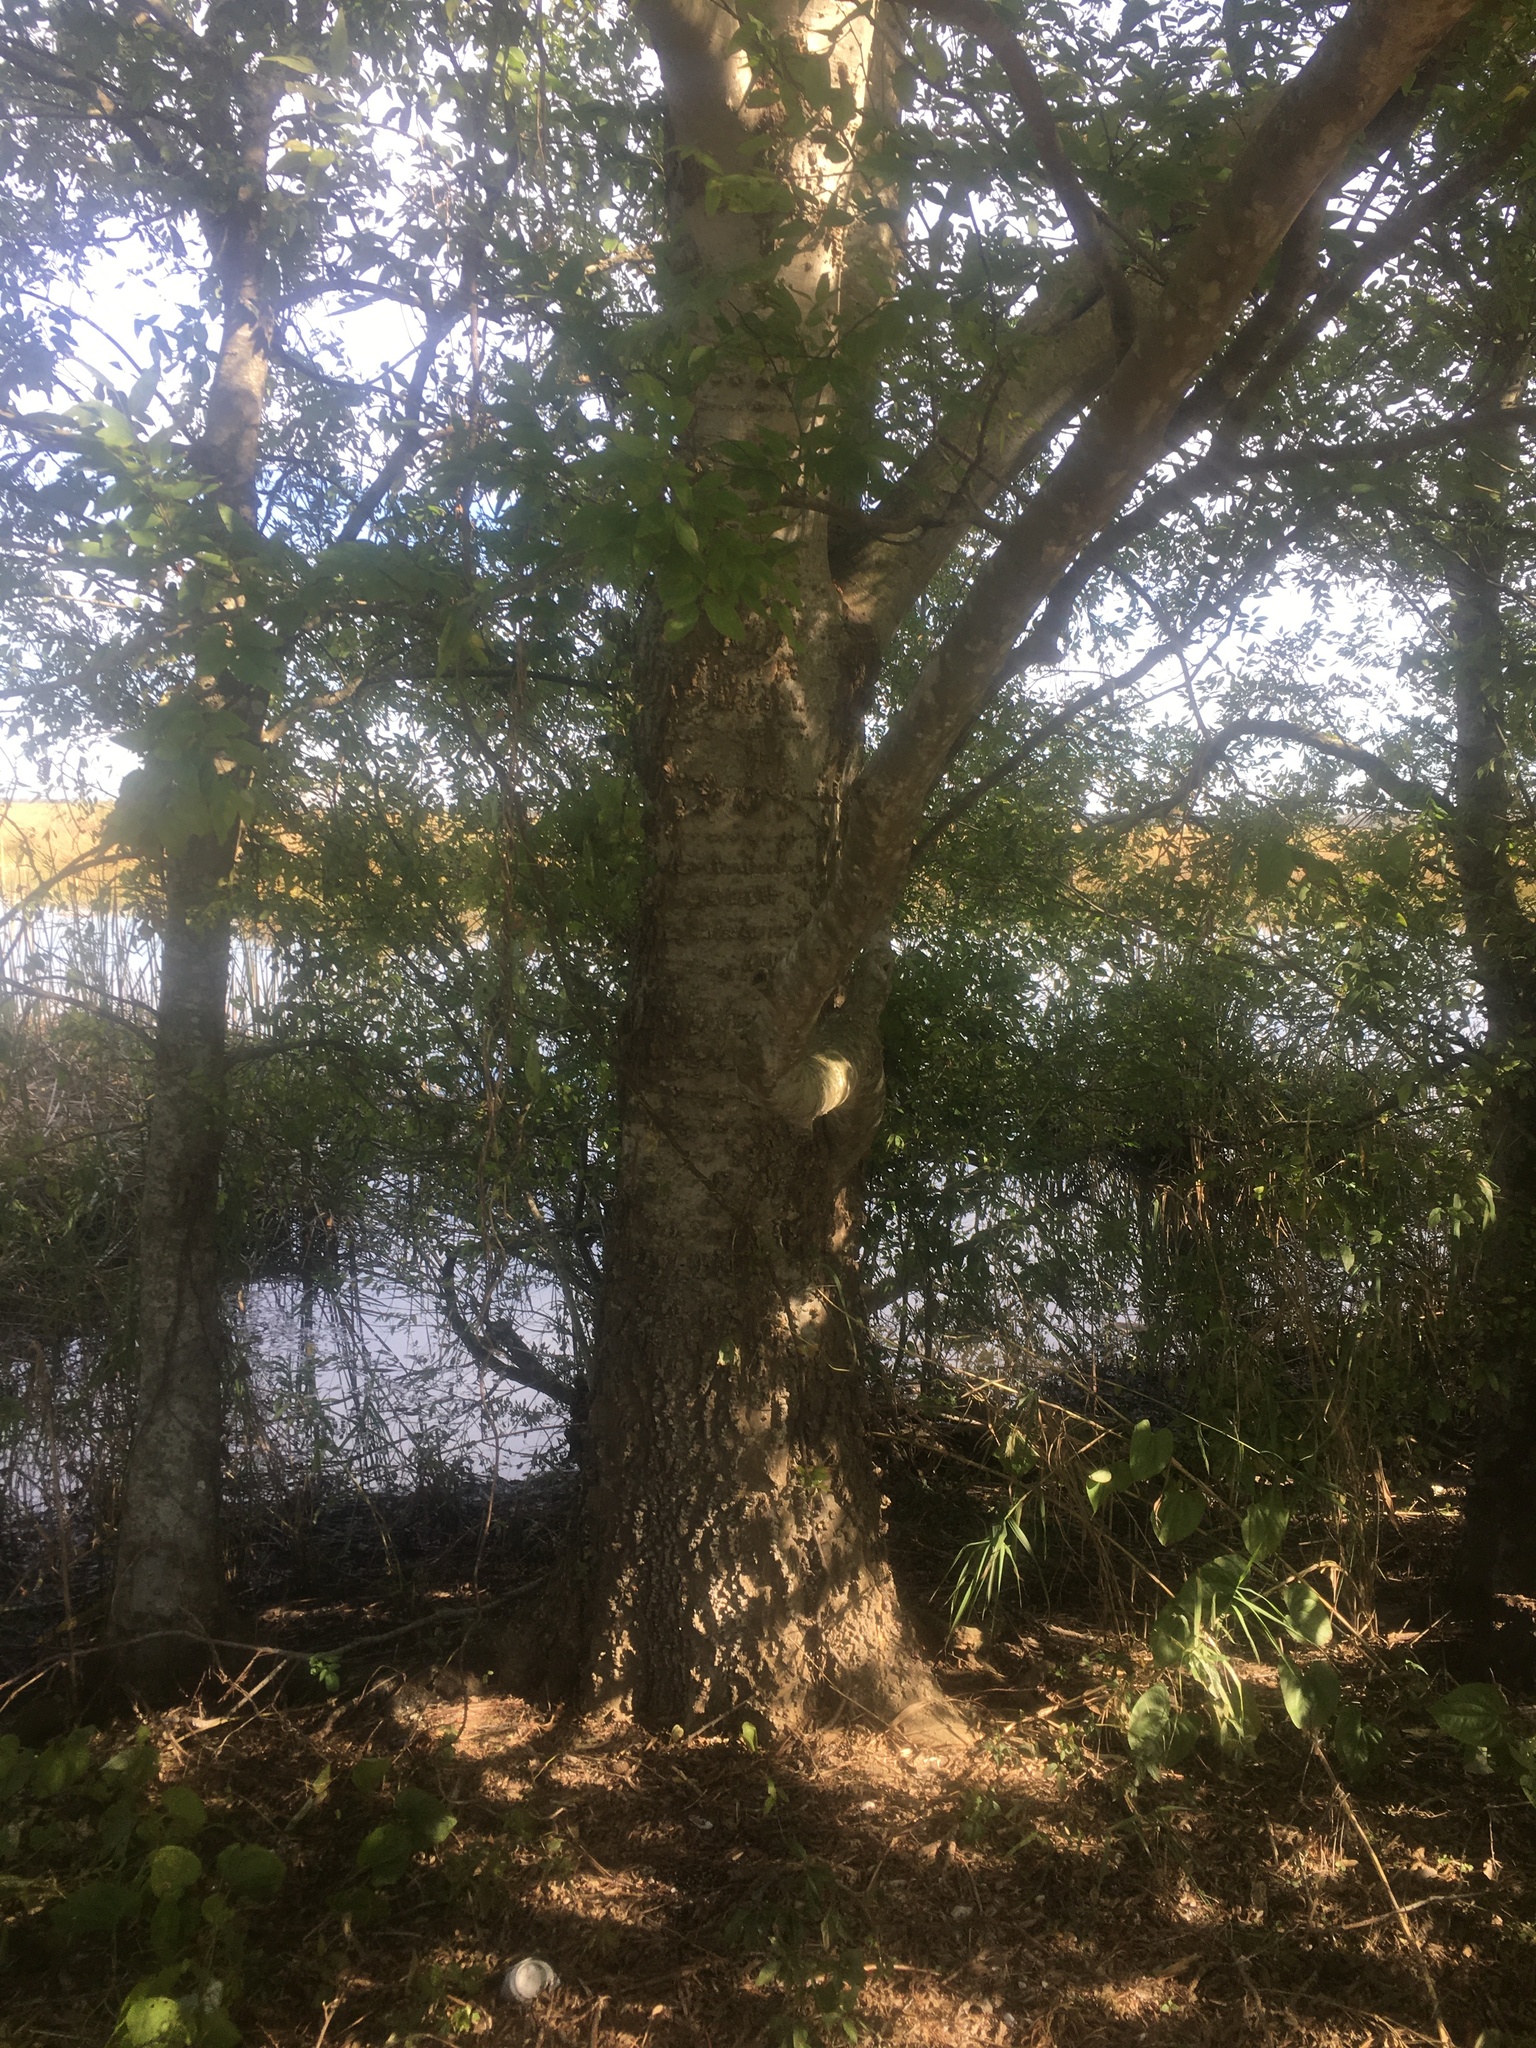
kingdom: Plantae
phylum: Tracheophyta
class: Magnoliopsida
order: Rosales
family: Cannabaceae
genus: Celtis
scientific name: Celtis laevigata
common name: Sugarberry
